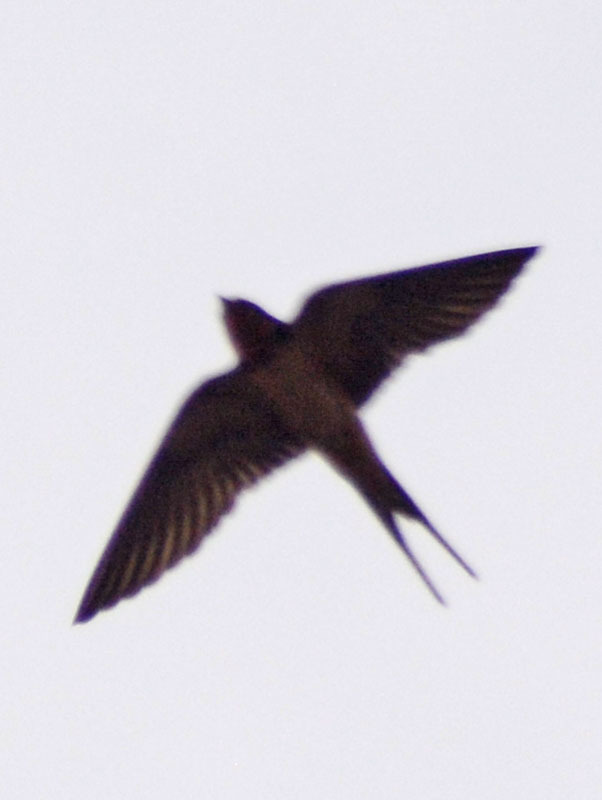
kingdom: Animalia
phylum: Chordata
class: Aves
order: Passeriformes
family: Hirundinidae
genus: Hirundo
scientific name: Hirundo rustica
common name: Barn swallow
